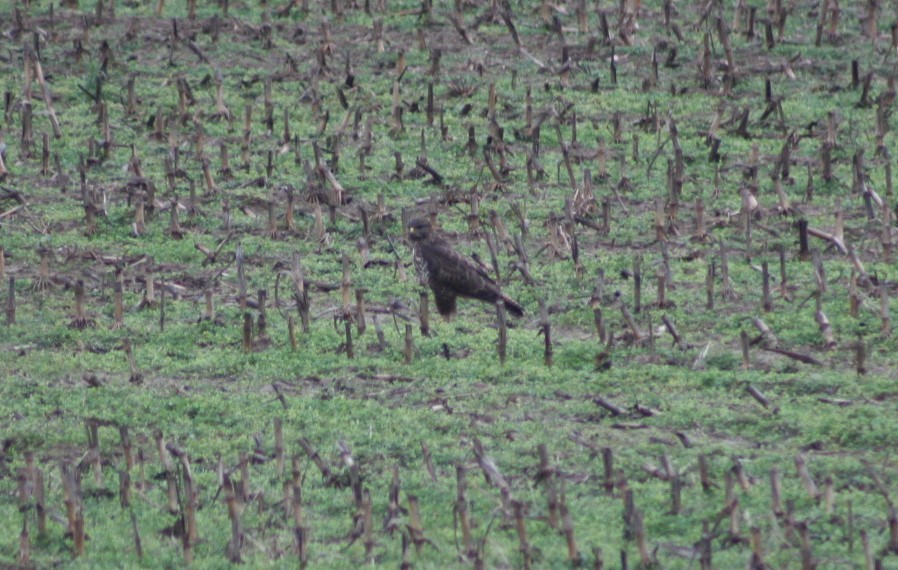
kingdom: Animalia
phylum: Chordata
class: Aves
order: Accipitriformes
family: Accipitridae
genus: Buteo
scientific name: Buteo buteo
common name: Common buzzard
